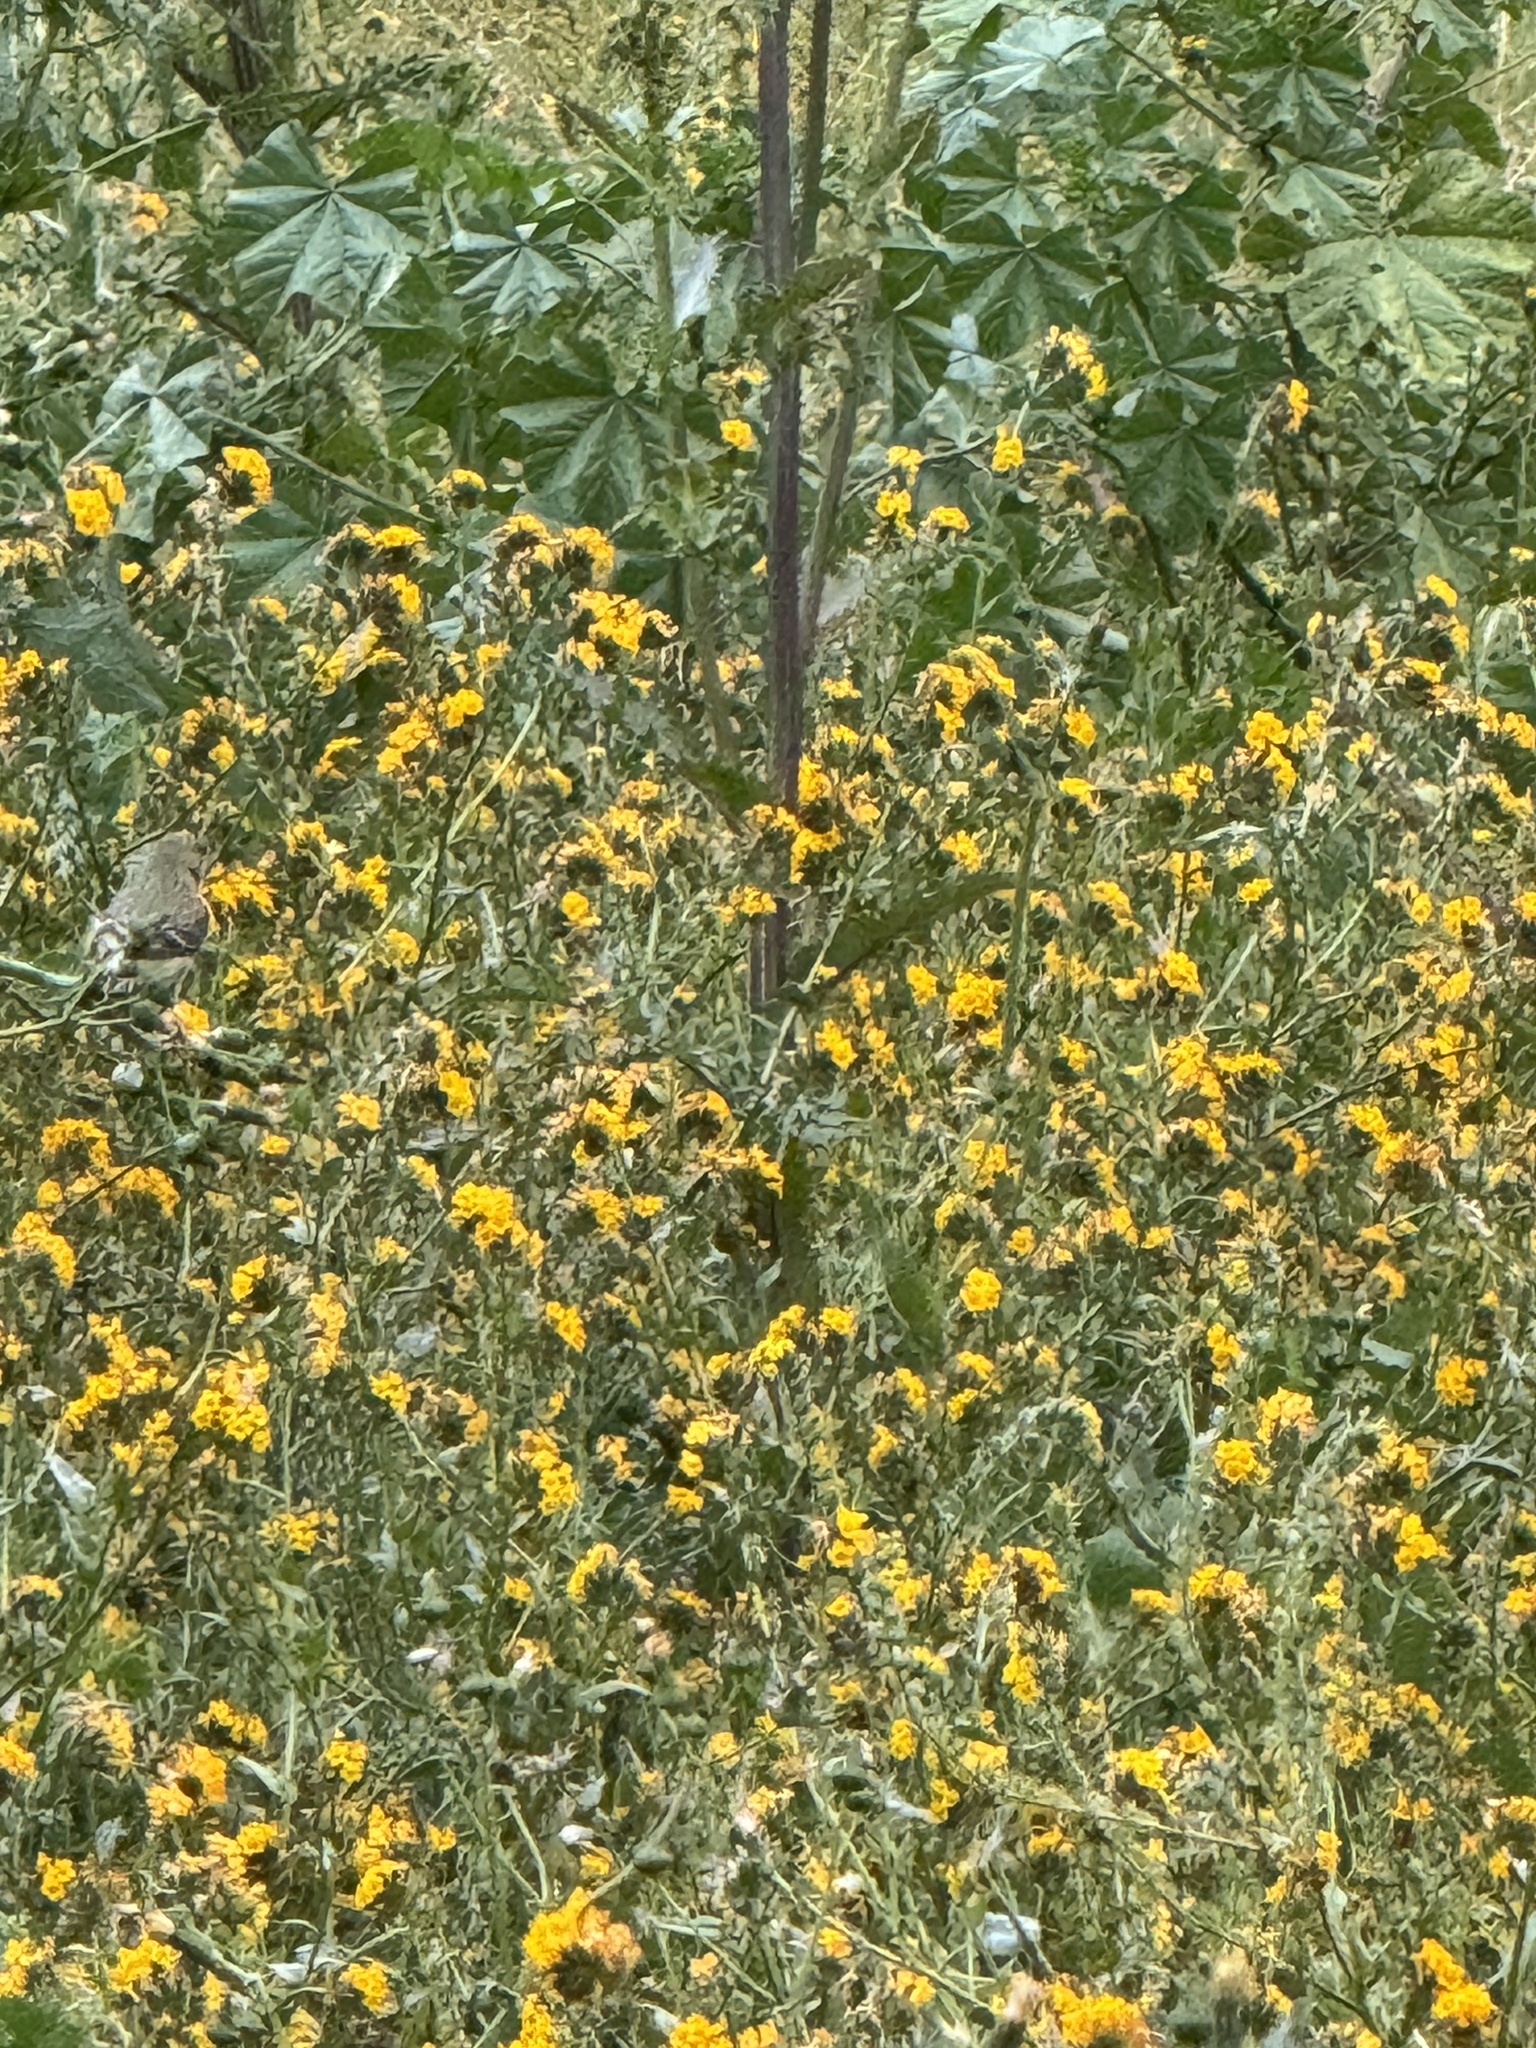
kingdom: Animalia
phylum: Chordata
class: Aves
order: Passeriformes
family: Fringillidae
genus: Spinus
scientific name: Spinus psaltria
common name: Lesser goldfinch
